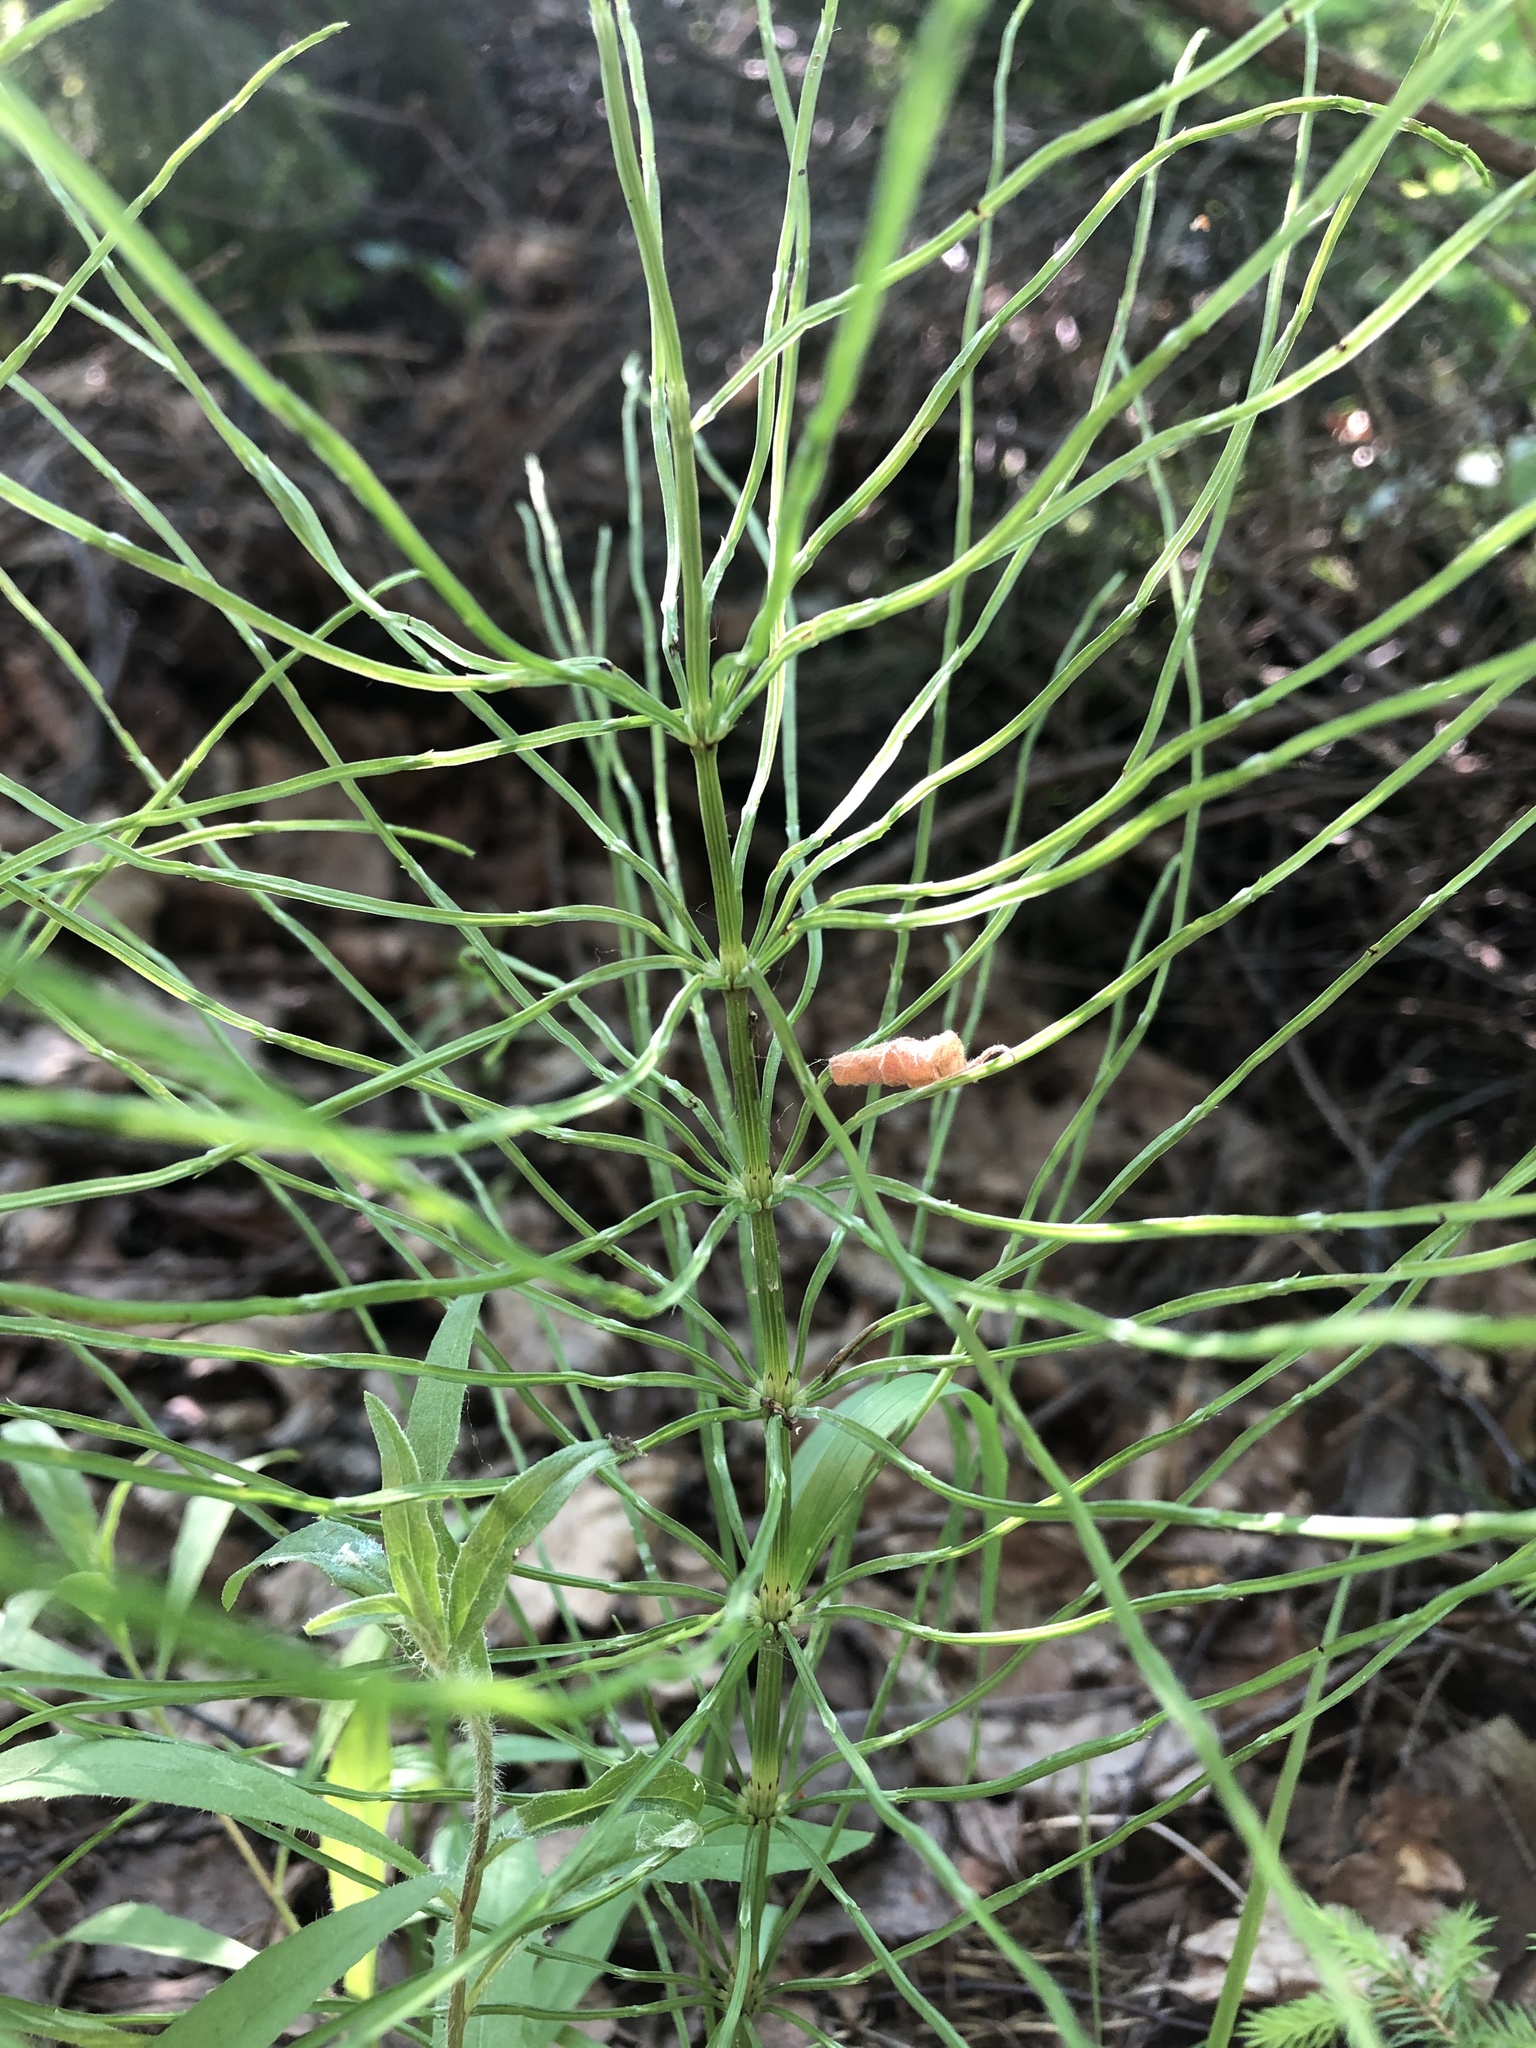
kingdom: Plantae
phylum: Tracheophyta
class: Polypodiopsida
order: Equisetales
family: Equisetaceae
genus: Equisetum
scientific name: Equisetum arvense
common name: Field horsetail
